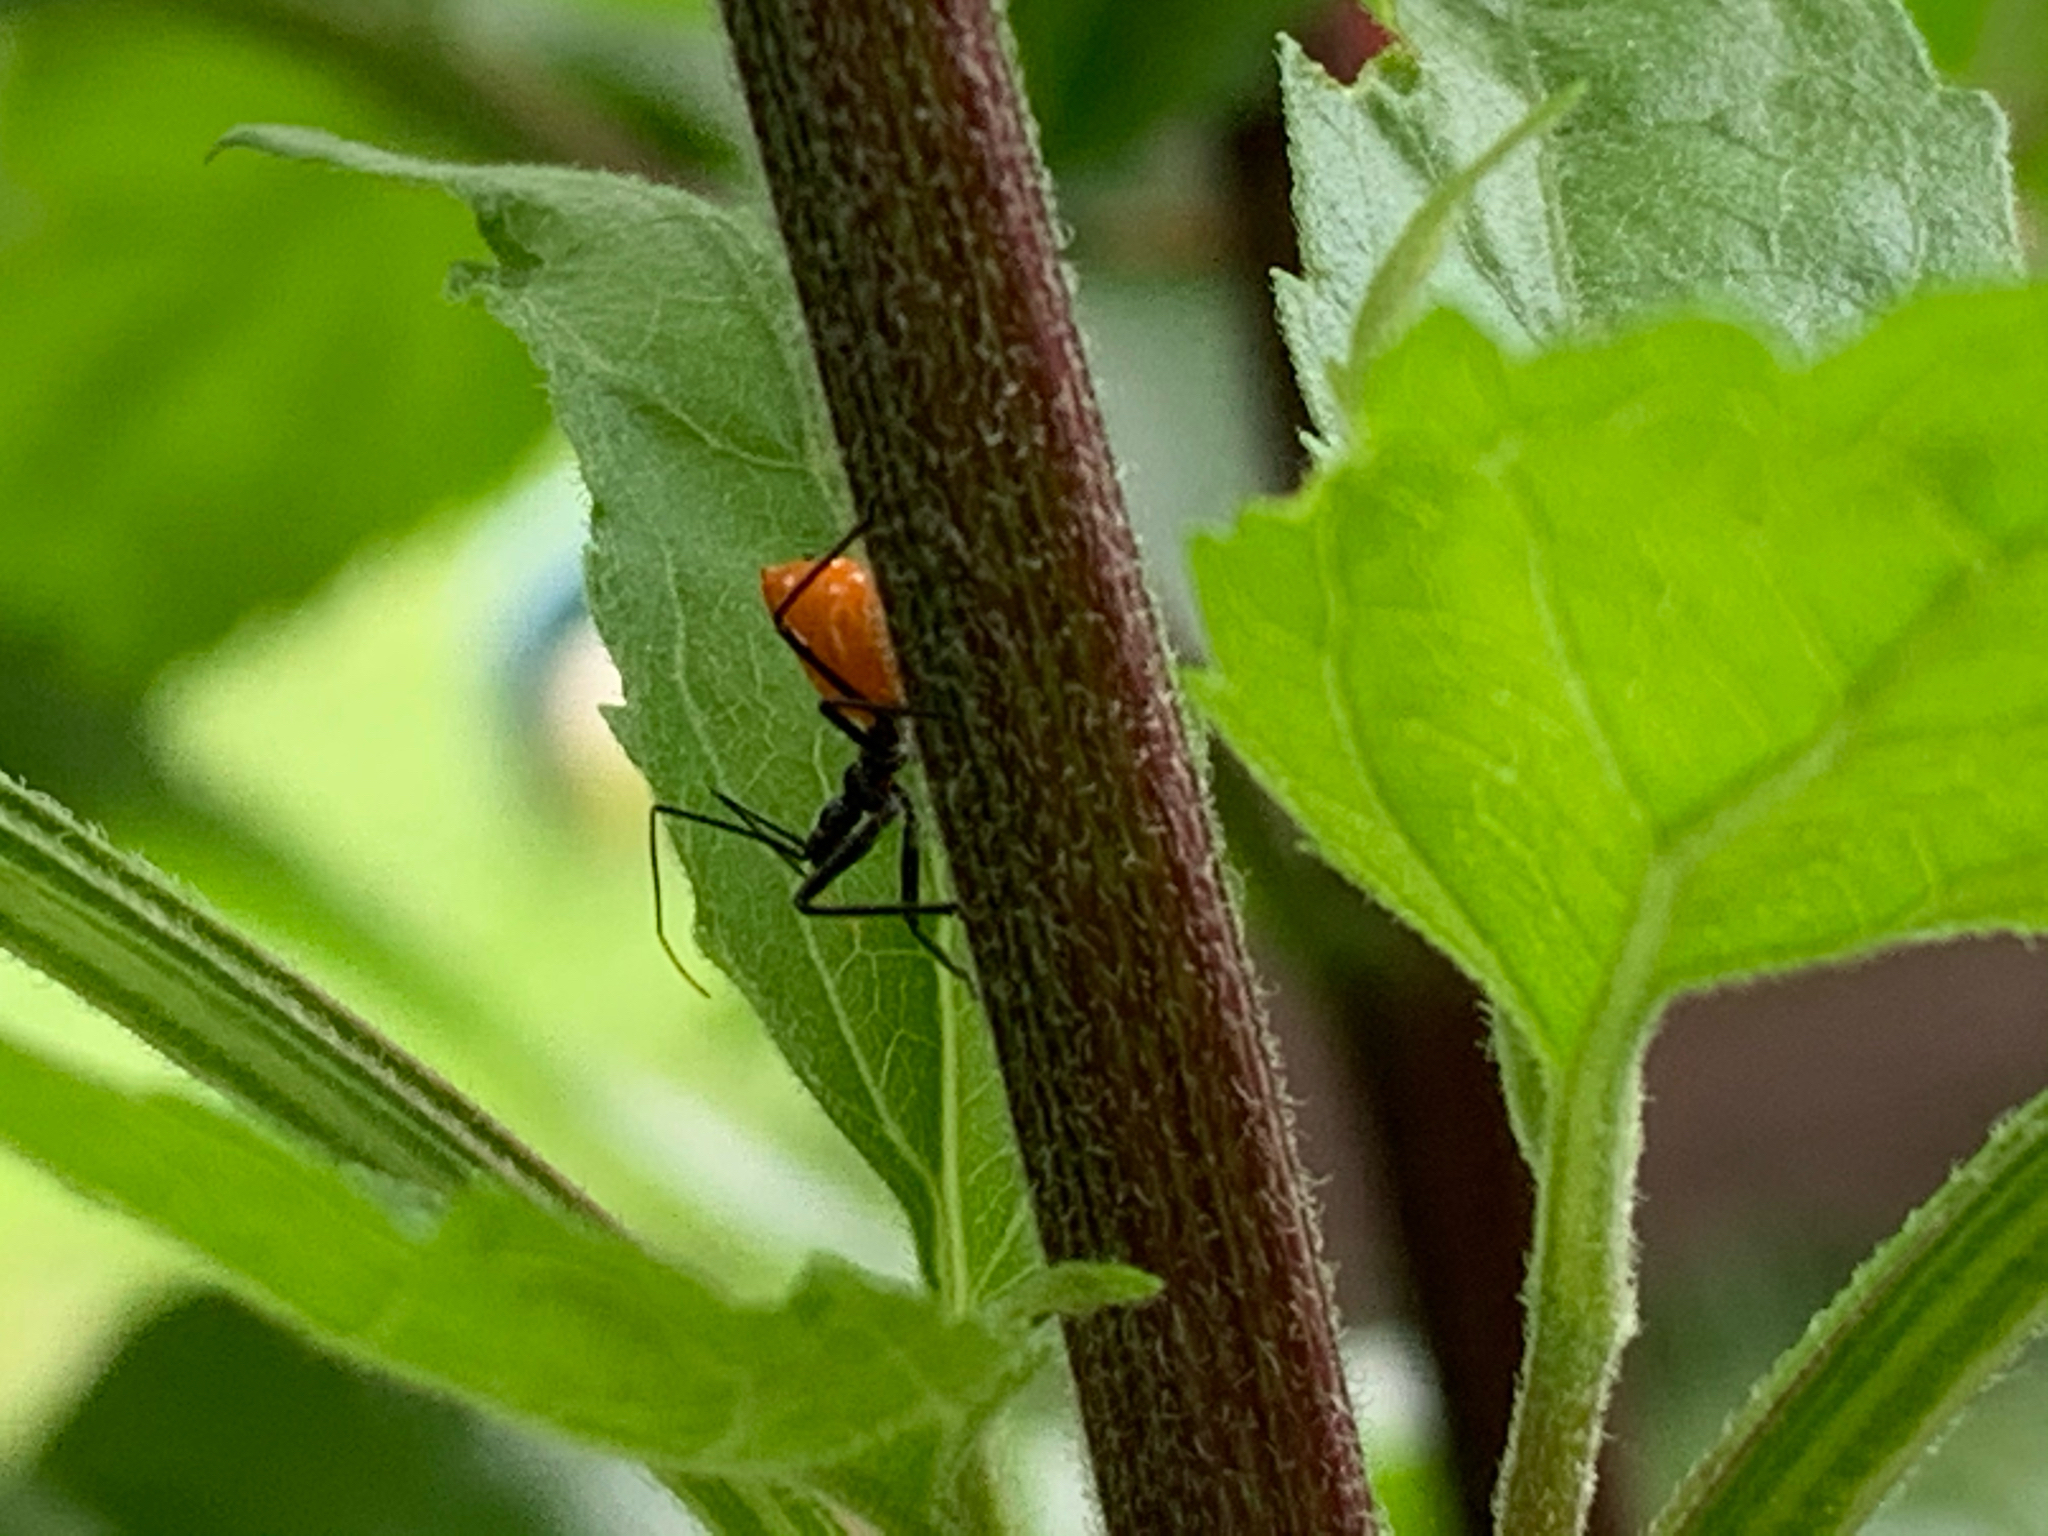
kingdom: Animalia
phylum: Arthropoda
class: Insecta
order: Hemiptera
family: Reduviidae
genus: Arilus
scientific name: Arilus cristatus
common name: North american wheel bug
